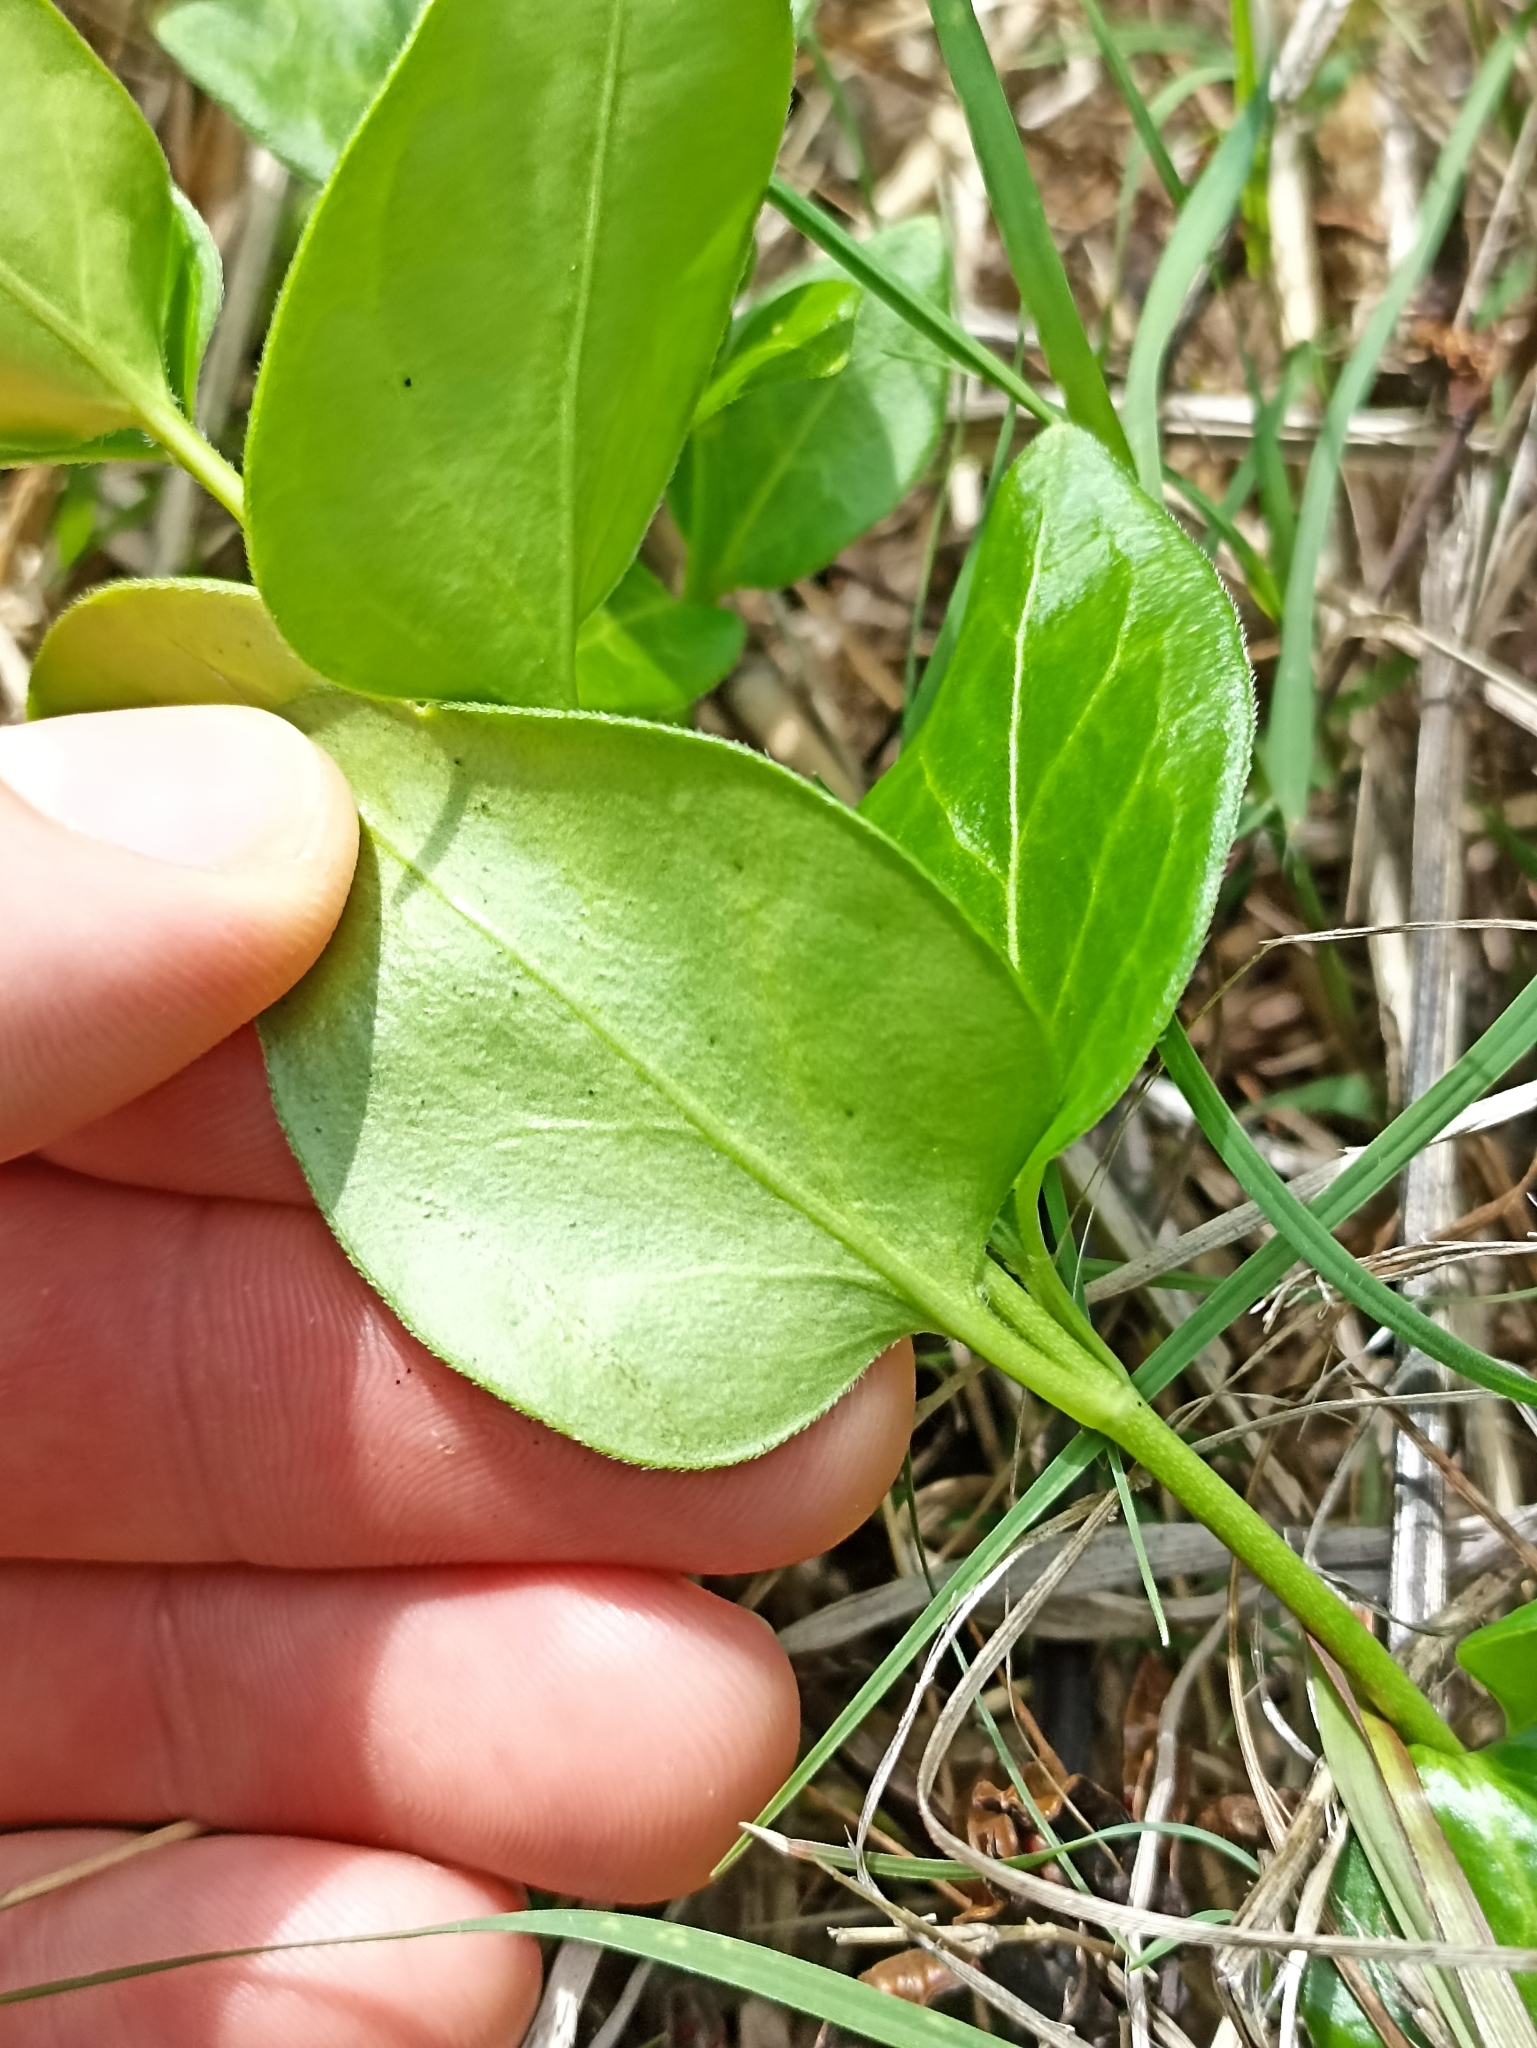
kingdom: Plantae
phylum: Tracheophyta
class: Magnoliopsida
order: Gentianales
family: Apocynaceae
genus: Vinca
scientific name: Vinca major
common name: Greater periwinkle
